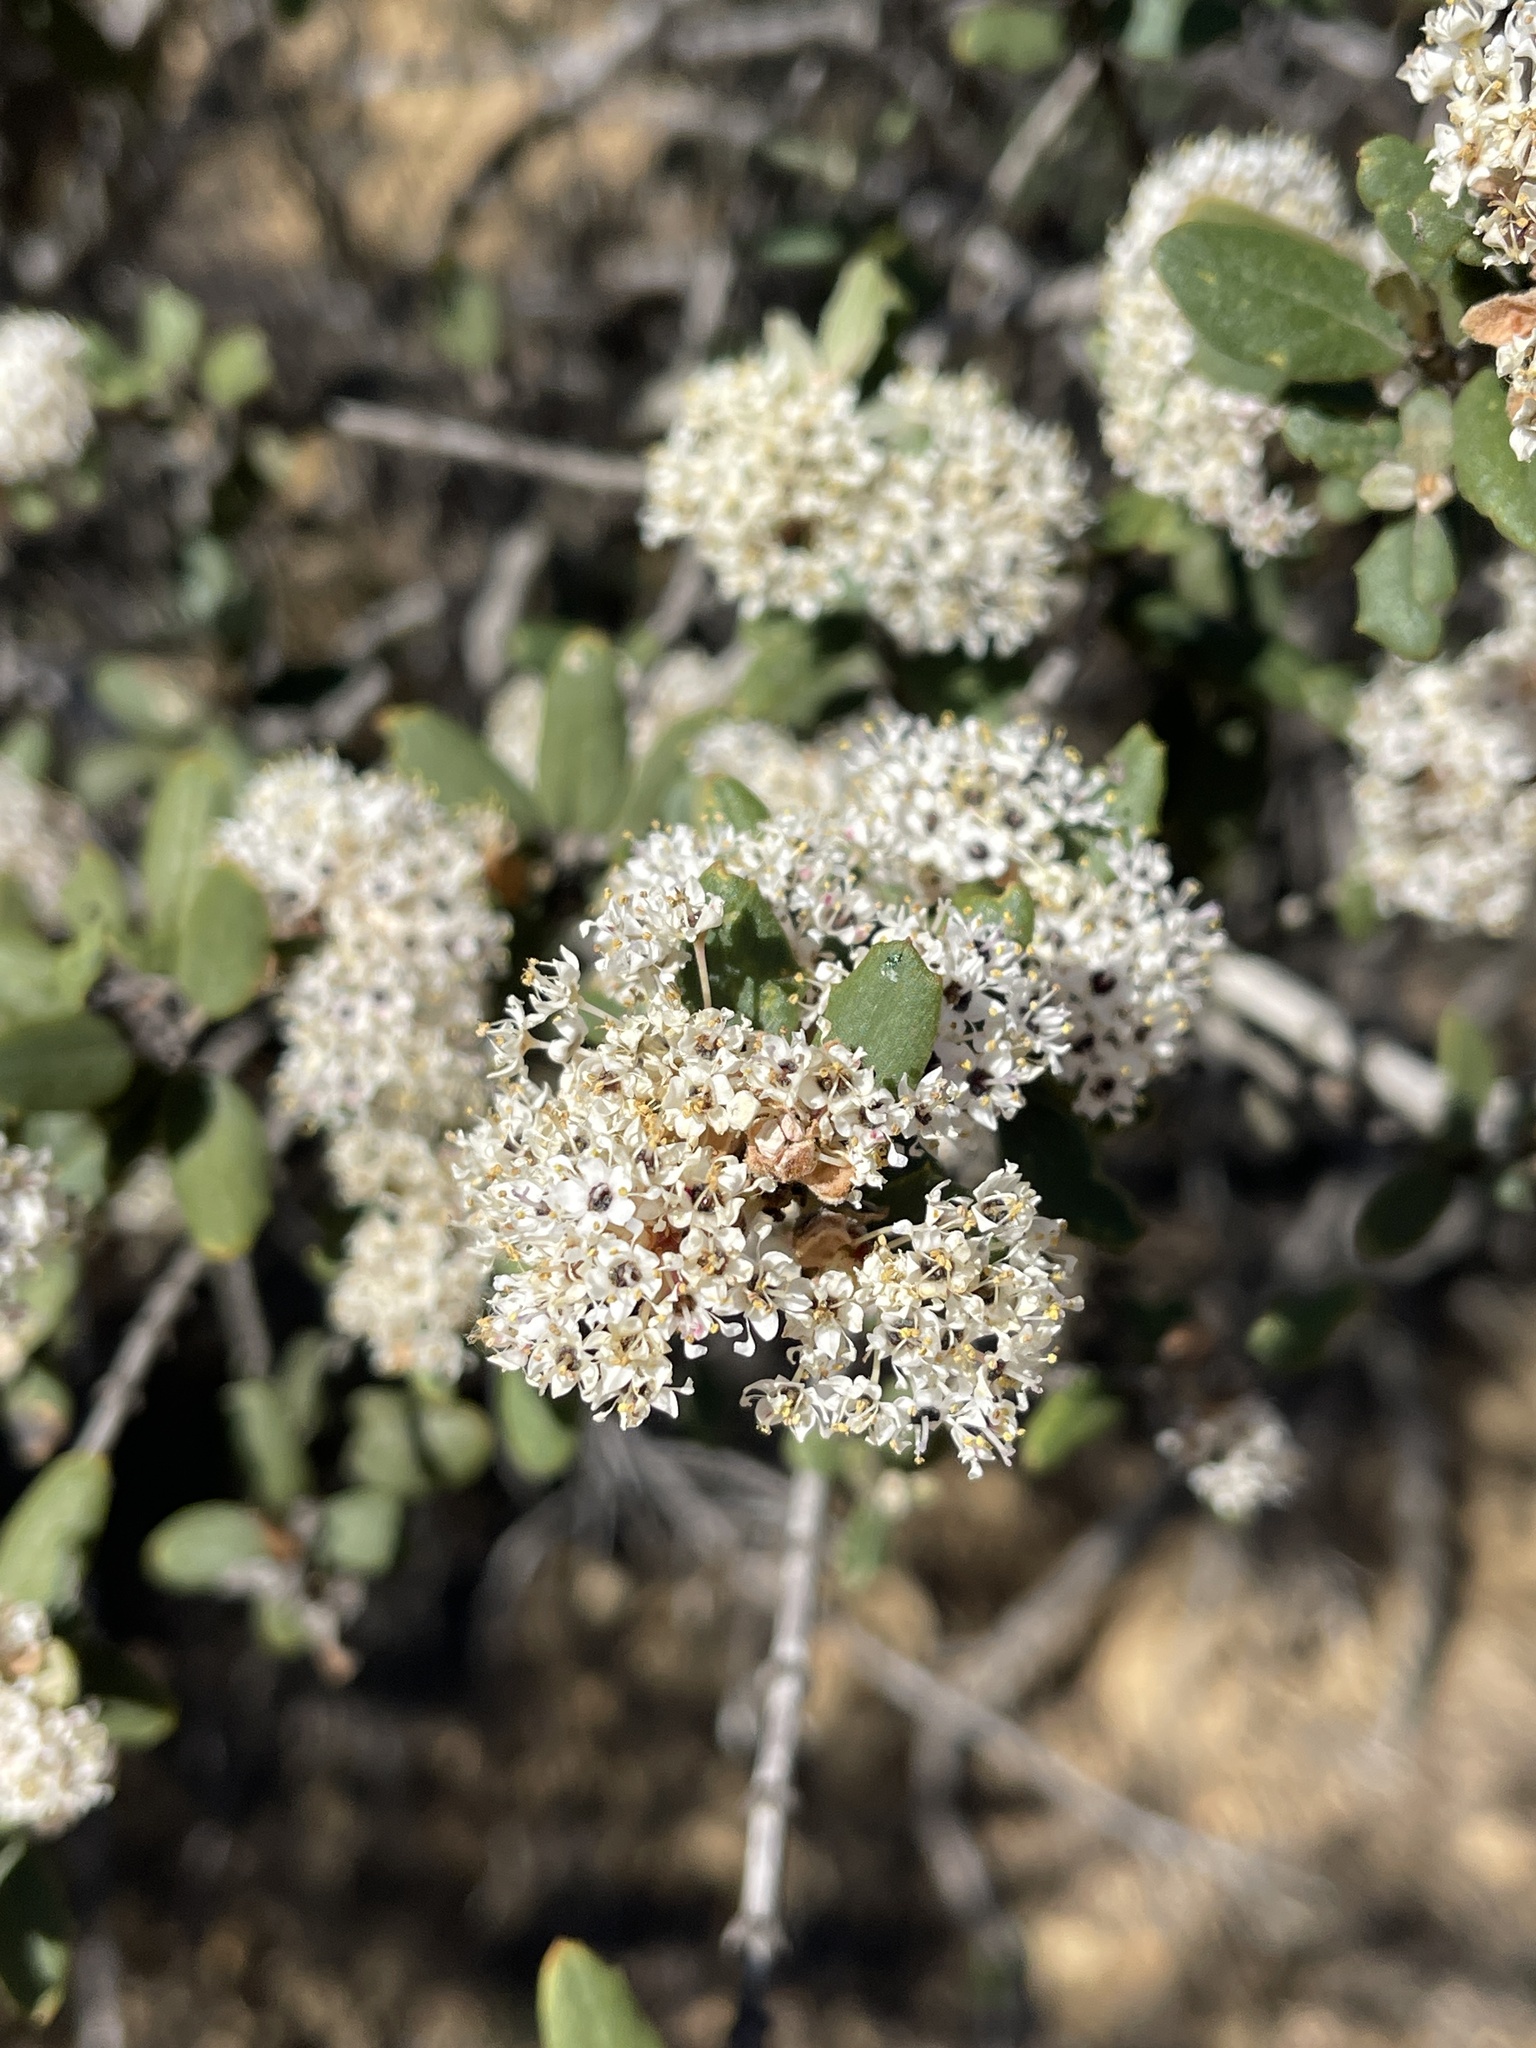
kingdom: Plantae
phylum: Tracheophyta
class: Magnoliopsida
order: Rosales
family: Rhamnaceae
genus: Ceanothus
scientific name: Ceanothus crassifolius
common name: Hoaryleaf ceanothus
